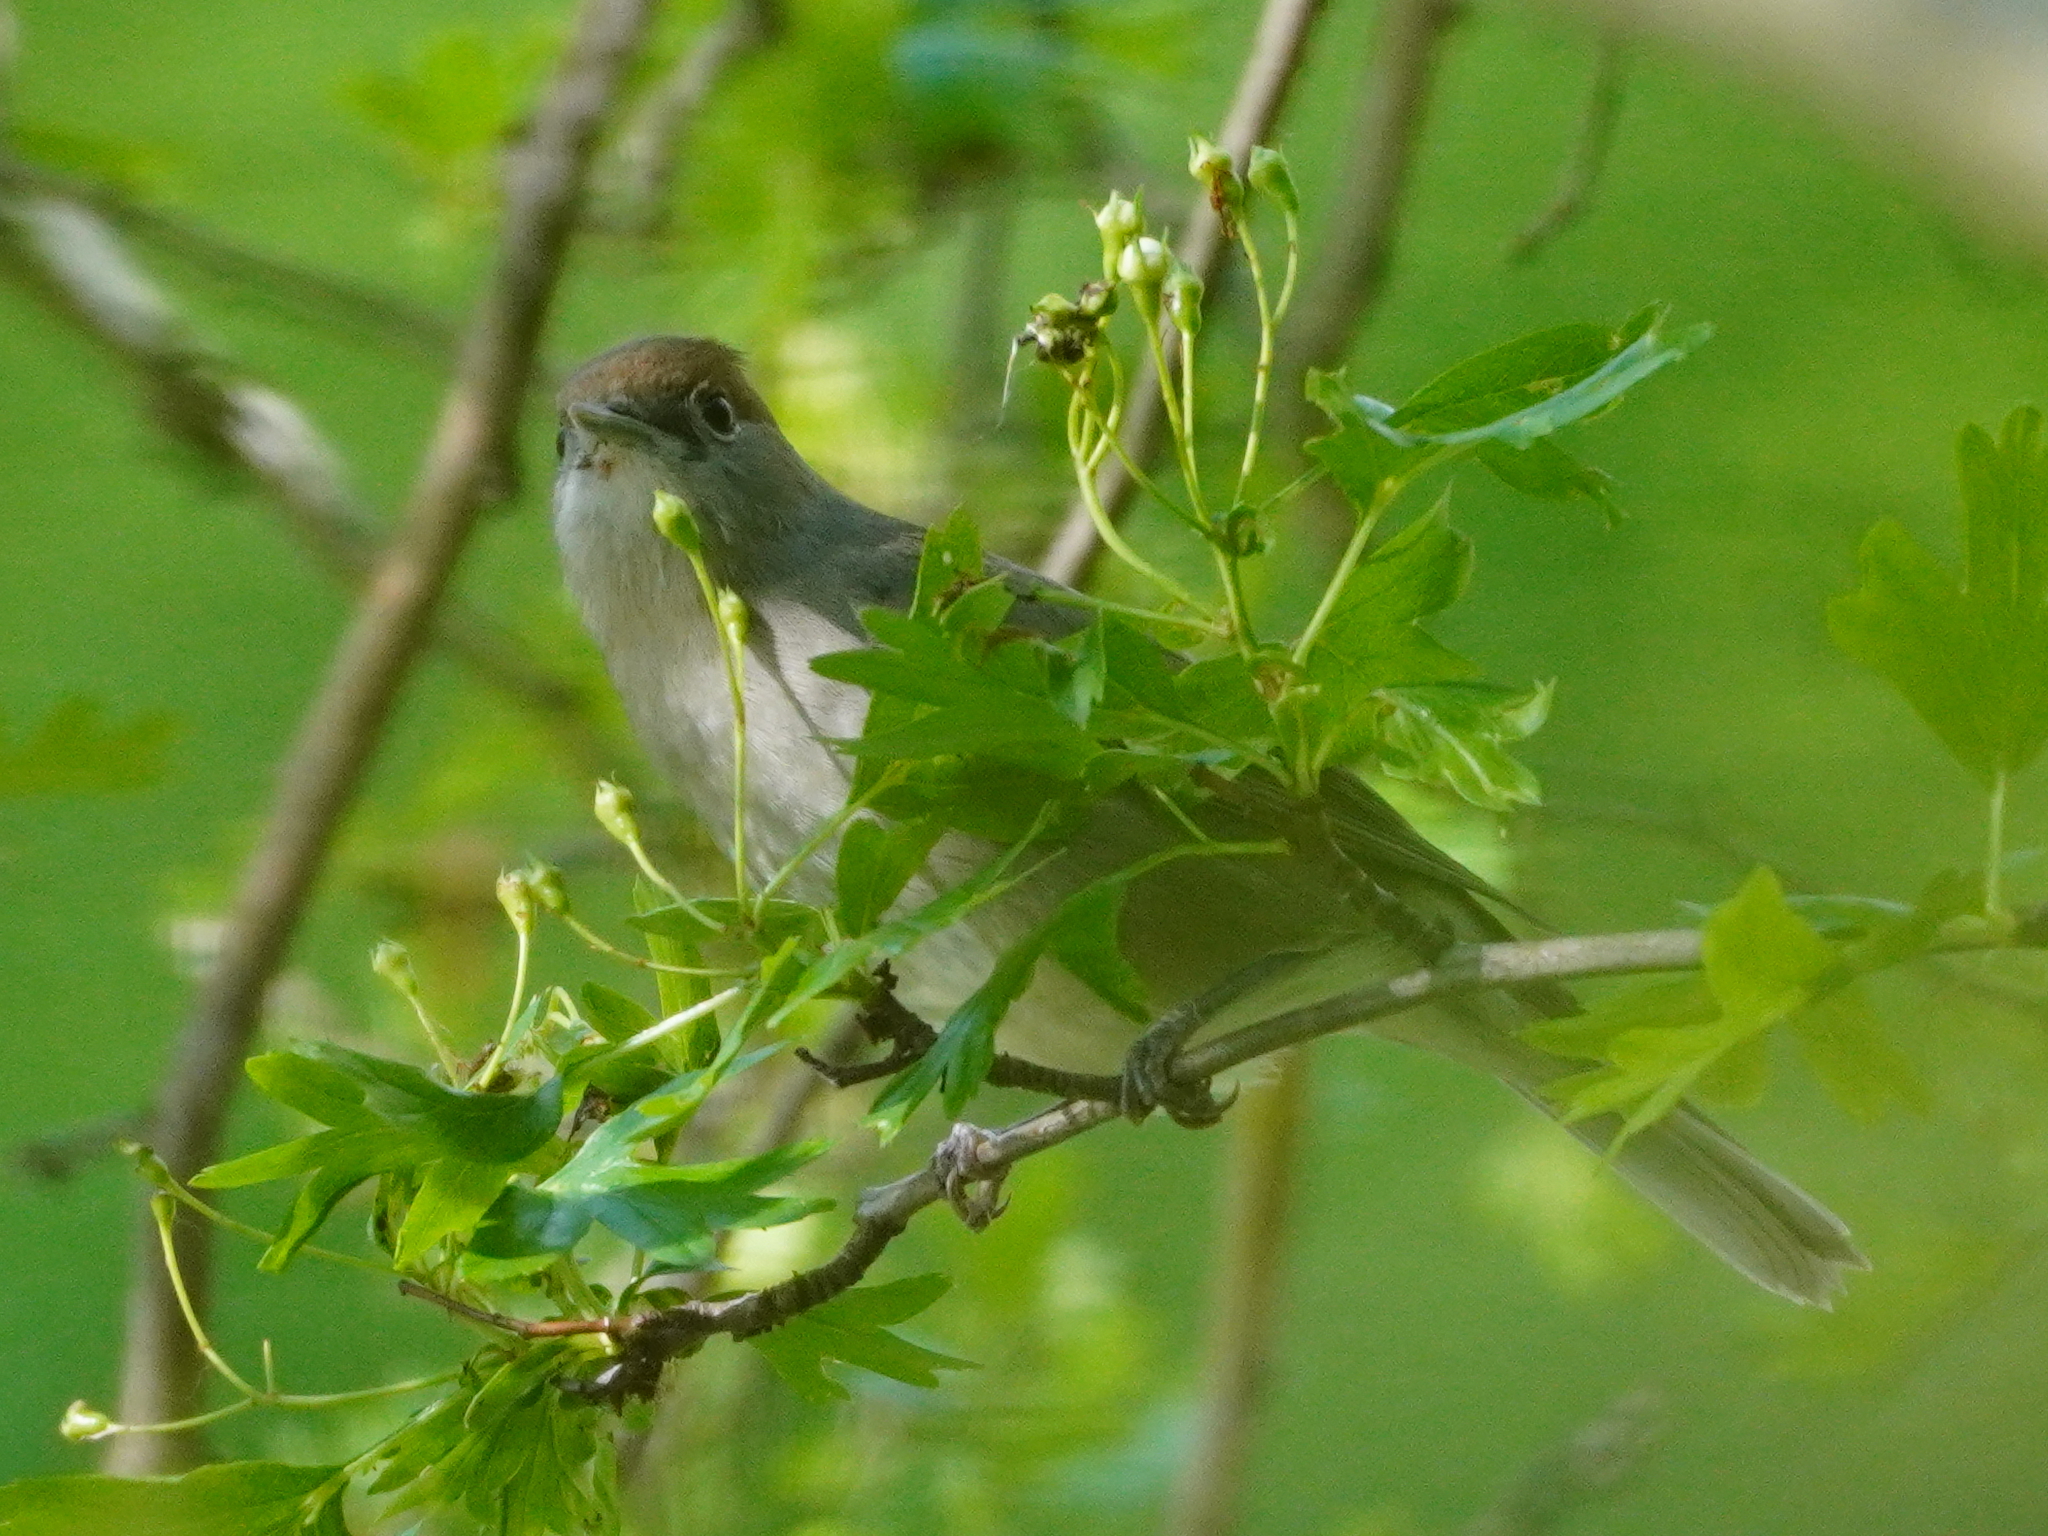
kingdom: Animalia
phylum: Chordata
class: Aves
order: Passeriformes
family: Sylviidae
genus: Sylvia
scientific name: Sylvia atricapilla
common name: Eurasian blackcap
